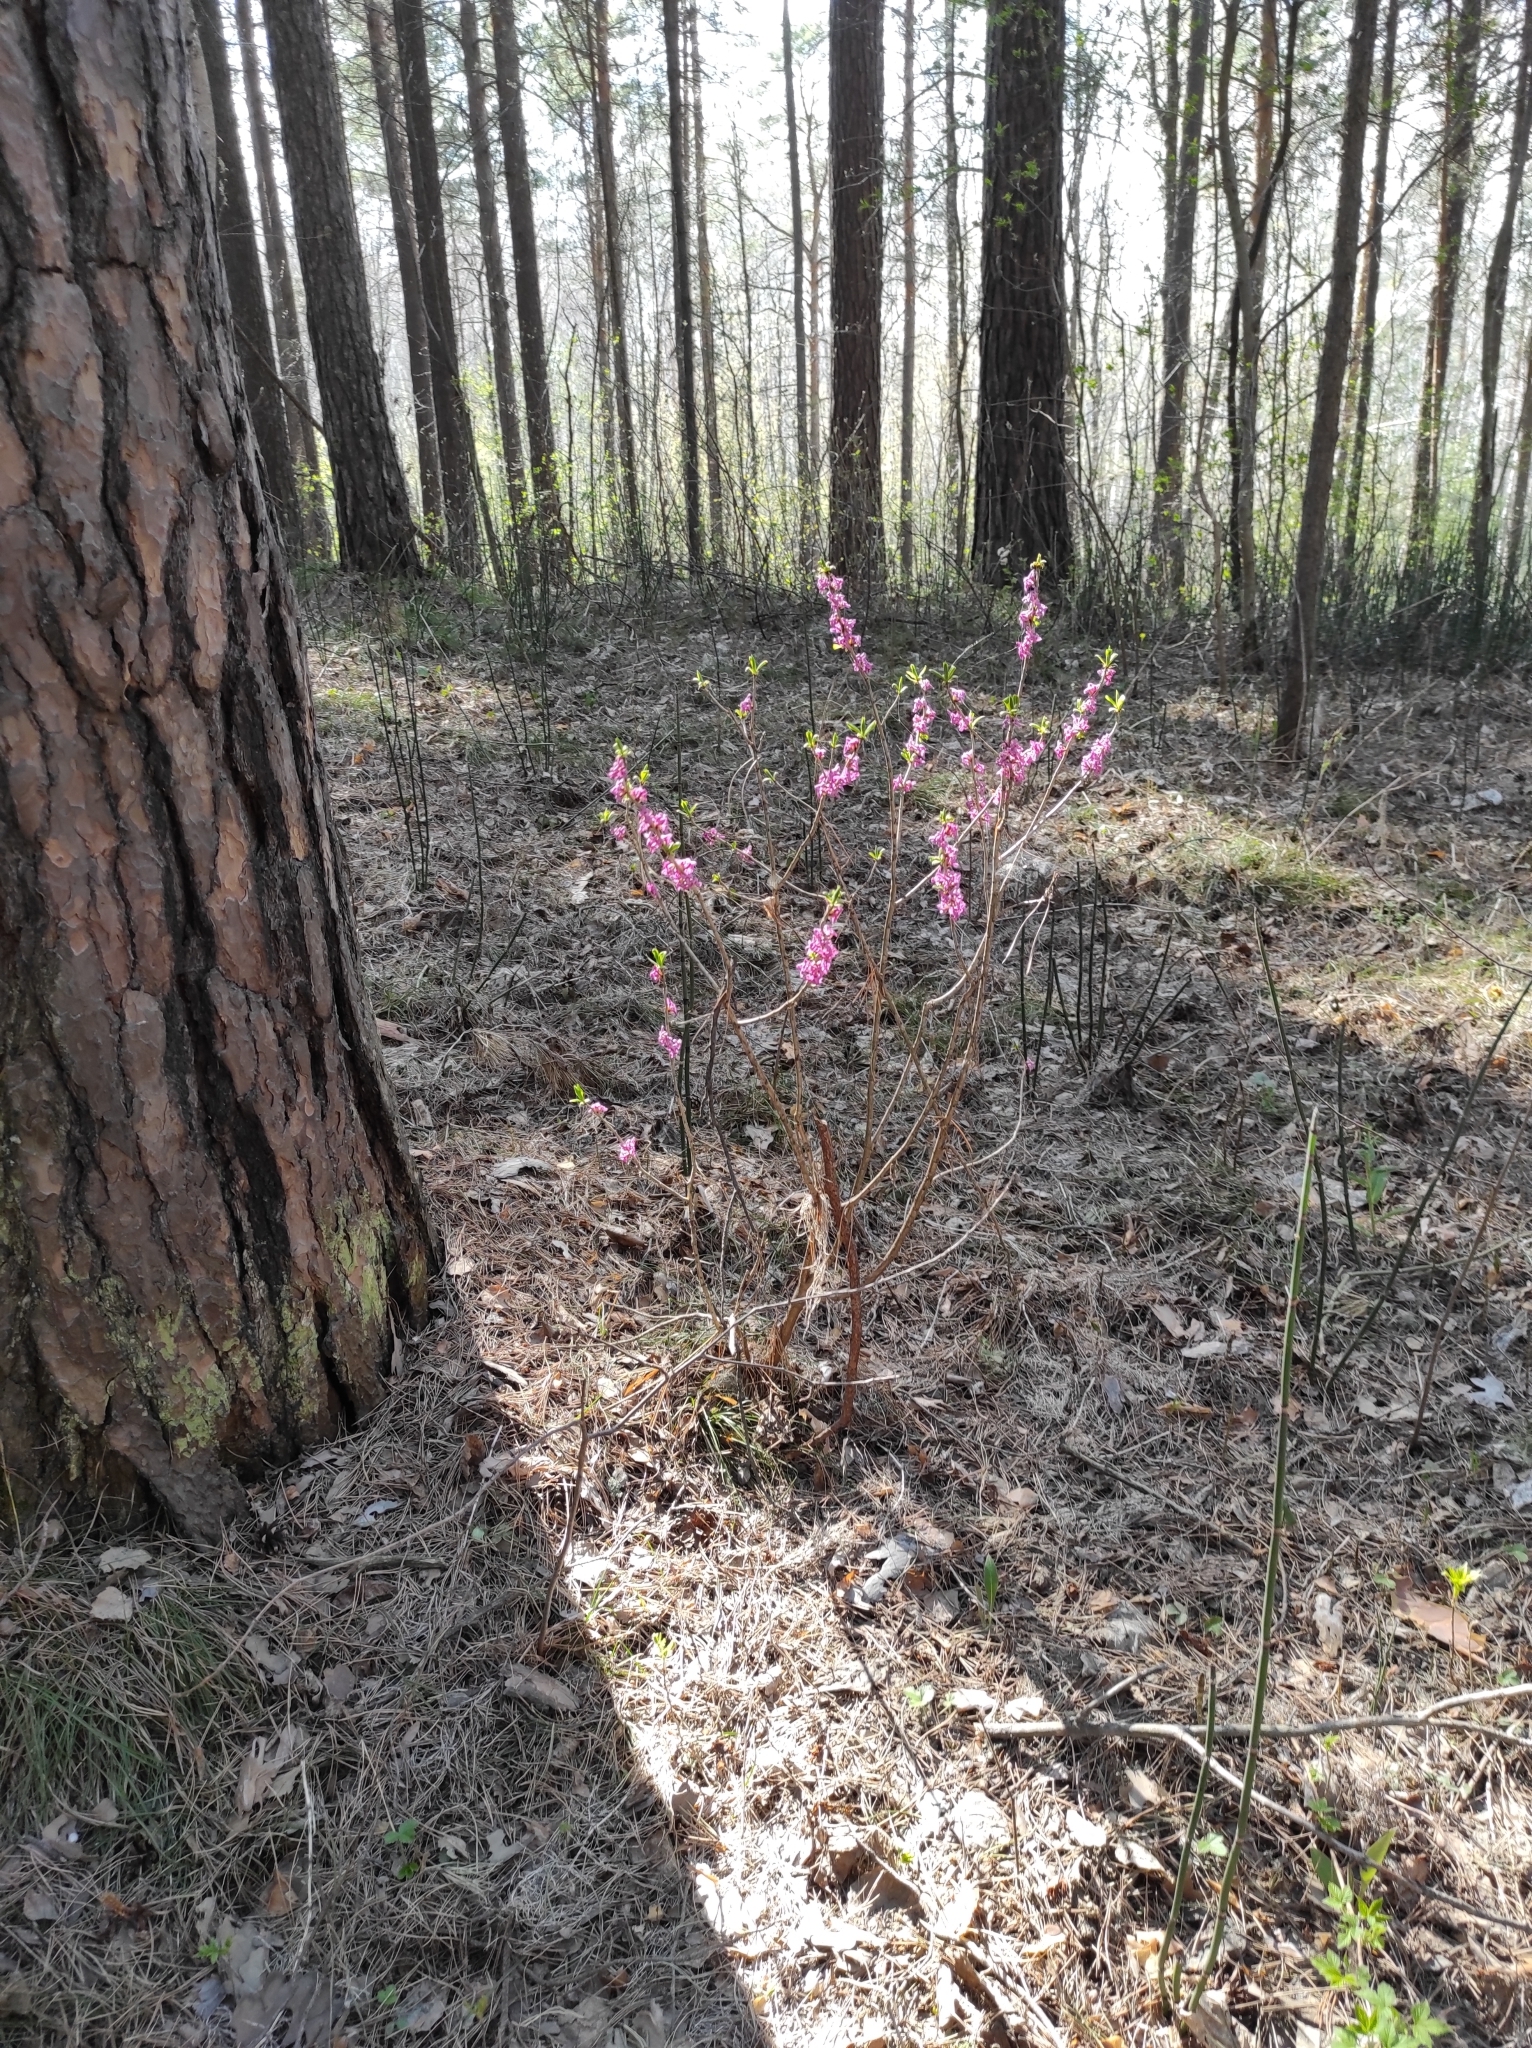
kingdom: Plantae
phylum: Tracheophyta
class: Pinopsida
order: Pinales
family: Pinaceae
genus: Pinus
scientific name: Pinus sylvestris
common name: Scots pine
